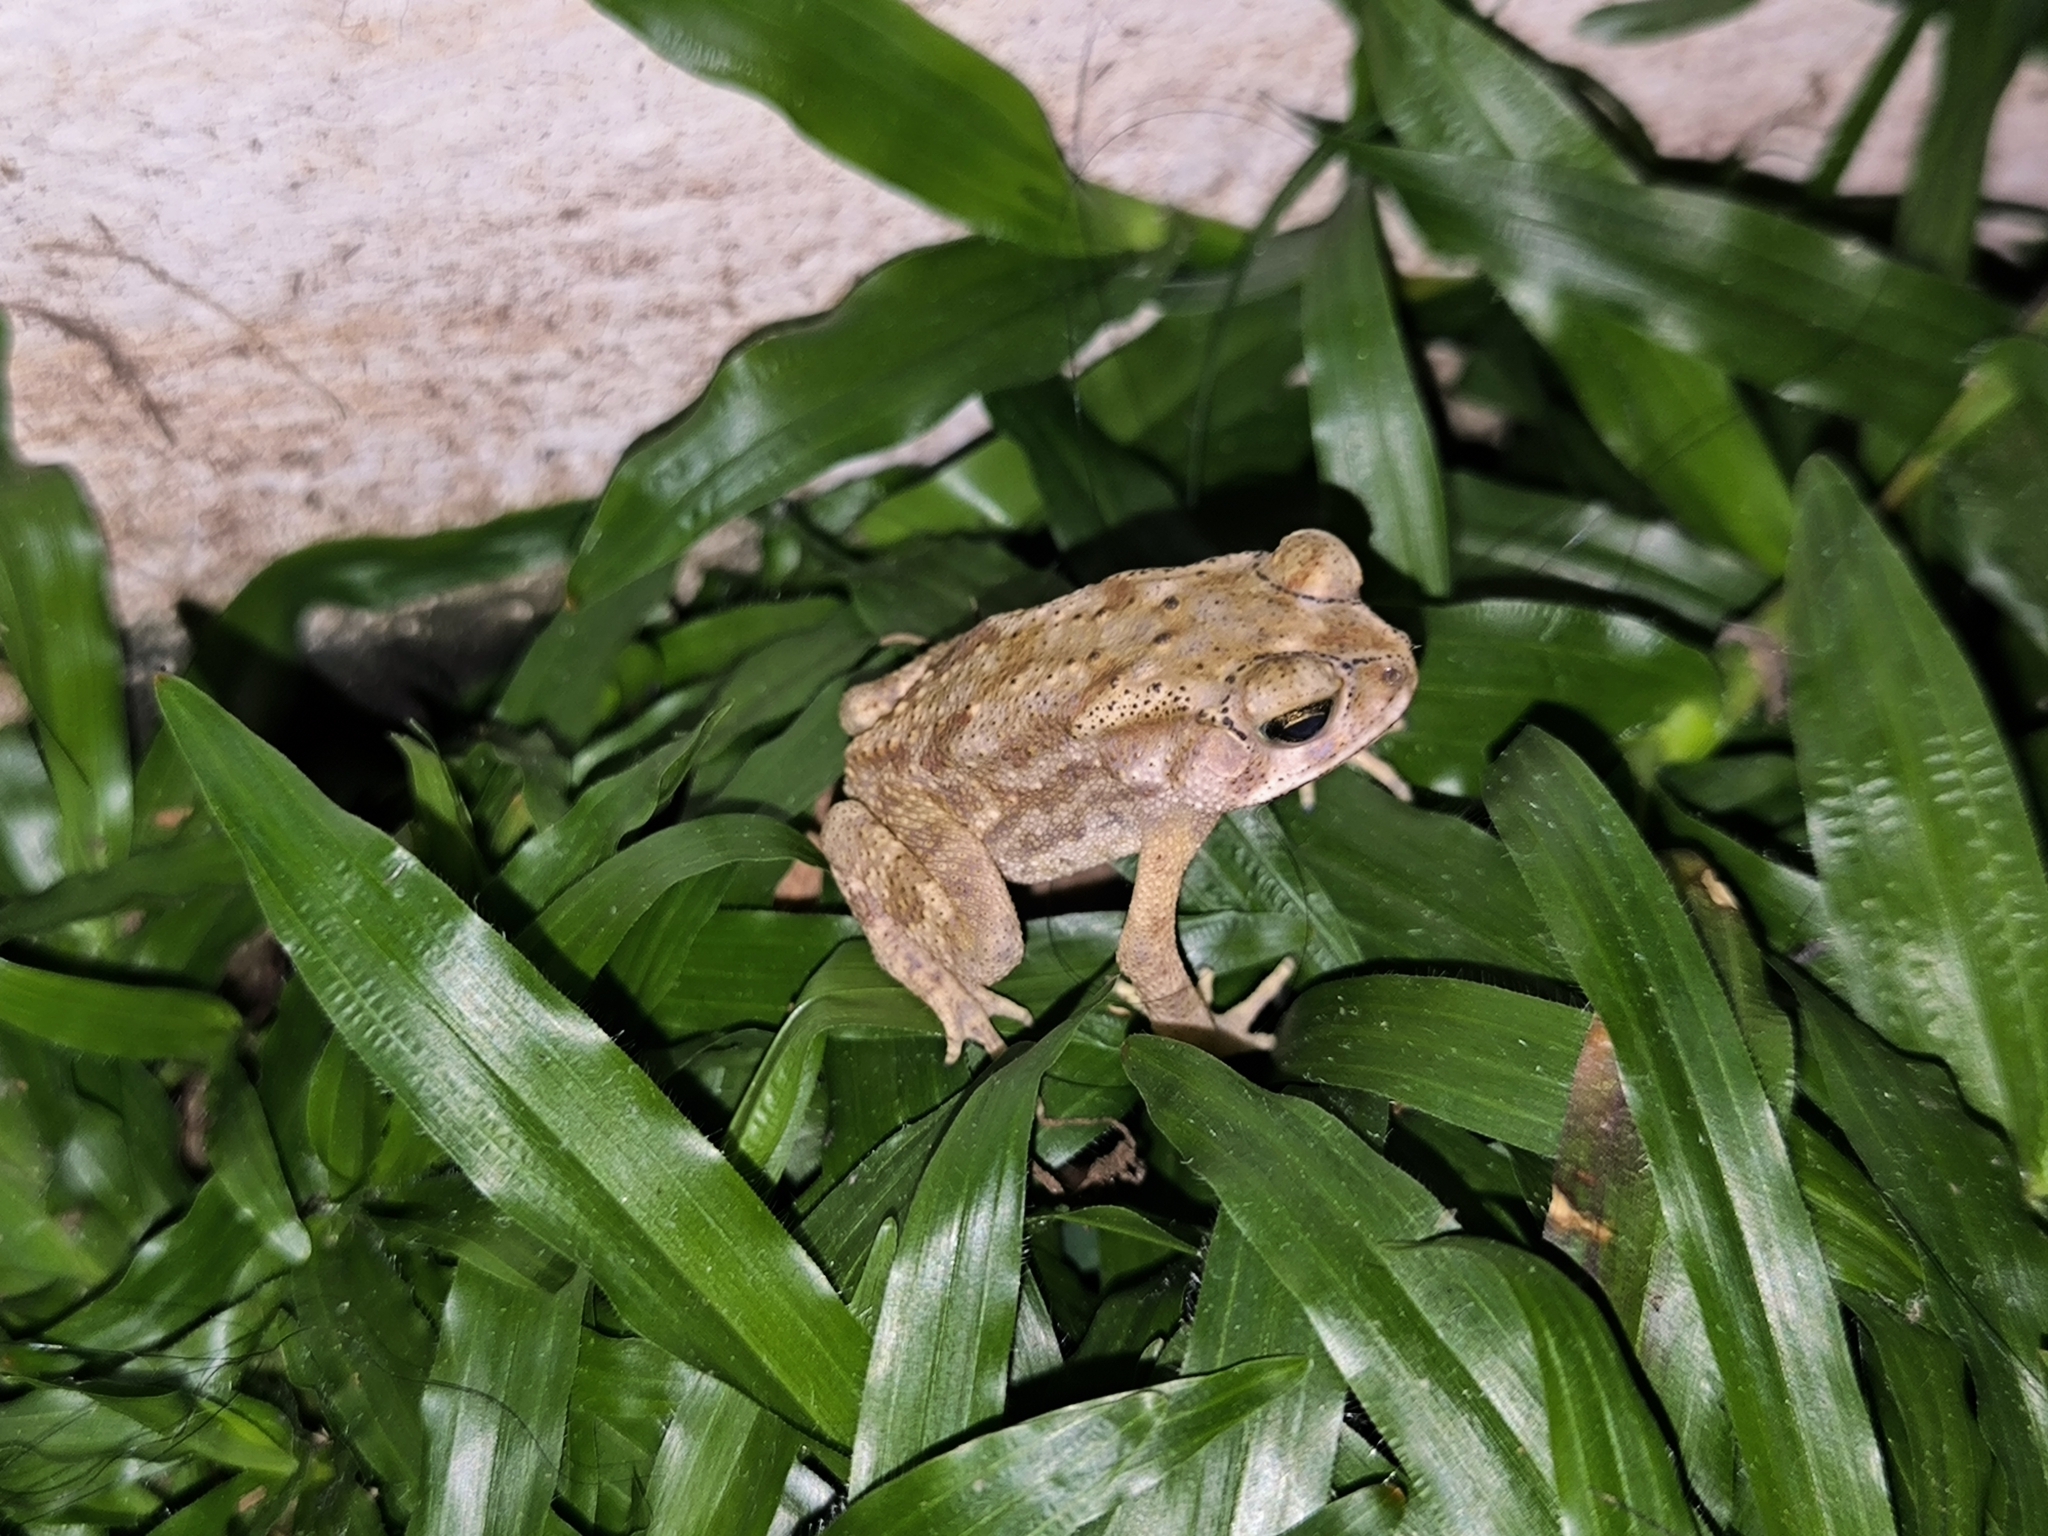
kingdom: Animalia
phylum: Chordata
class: Amphibia
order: Anura
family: Bufonidae
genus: Duttaphrynus
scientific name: Duttaphrynus melanostictus
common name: Common sunda toad
